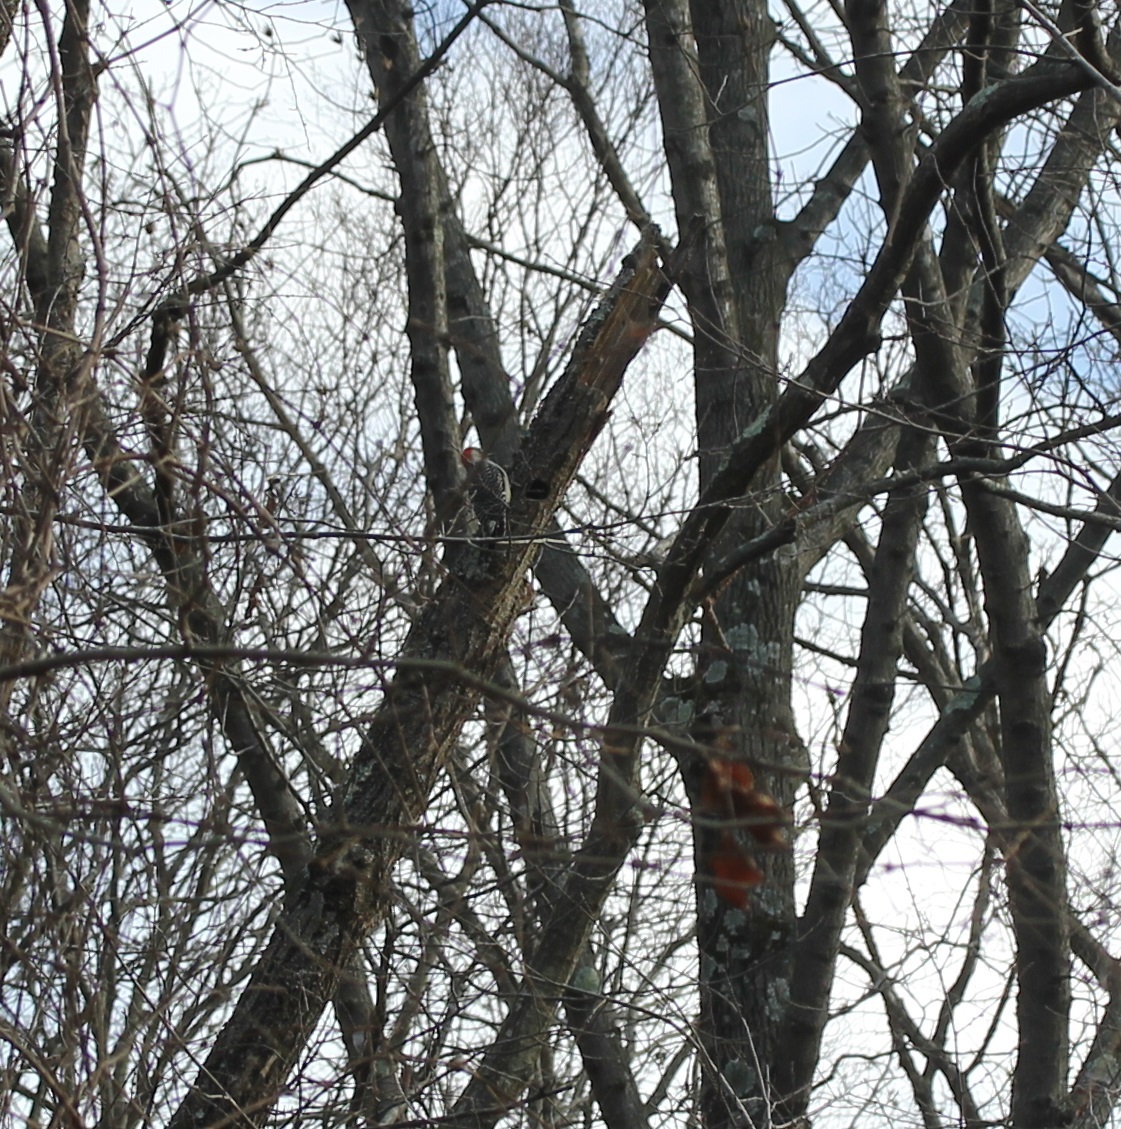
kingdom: Animalia
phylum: Chordata
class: Aves
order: Piciformes
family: Picidae
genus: Melanerpes
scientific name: Melanerpes carolinus
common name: Red-bellied woodpecker
